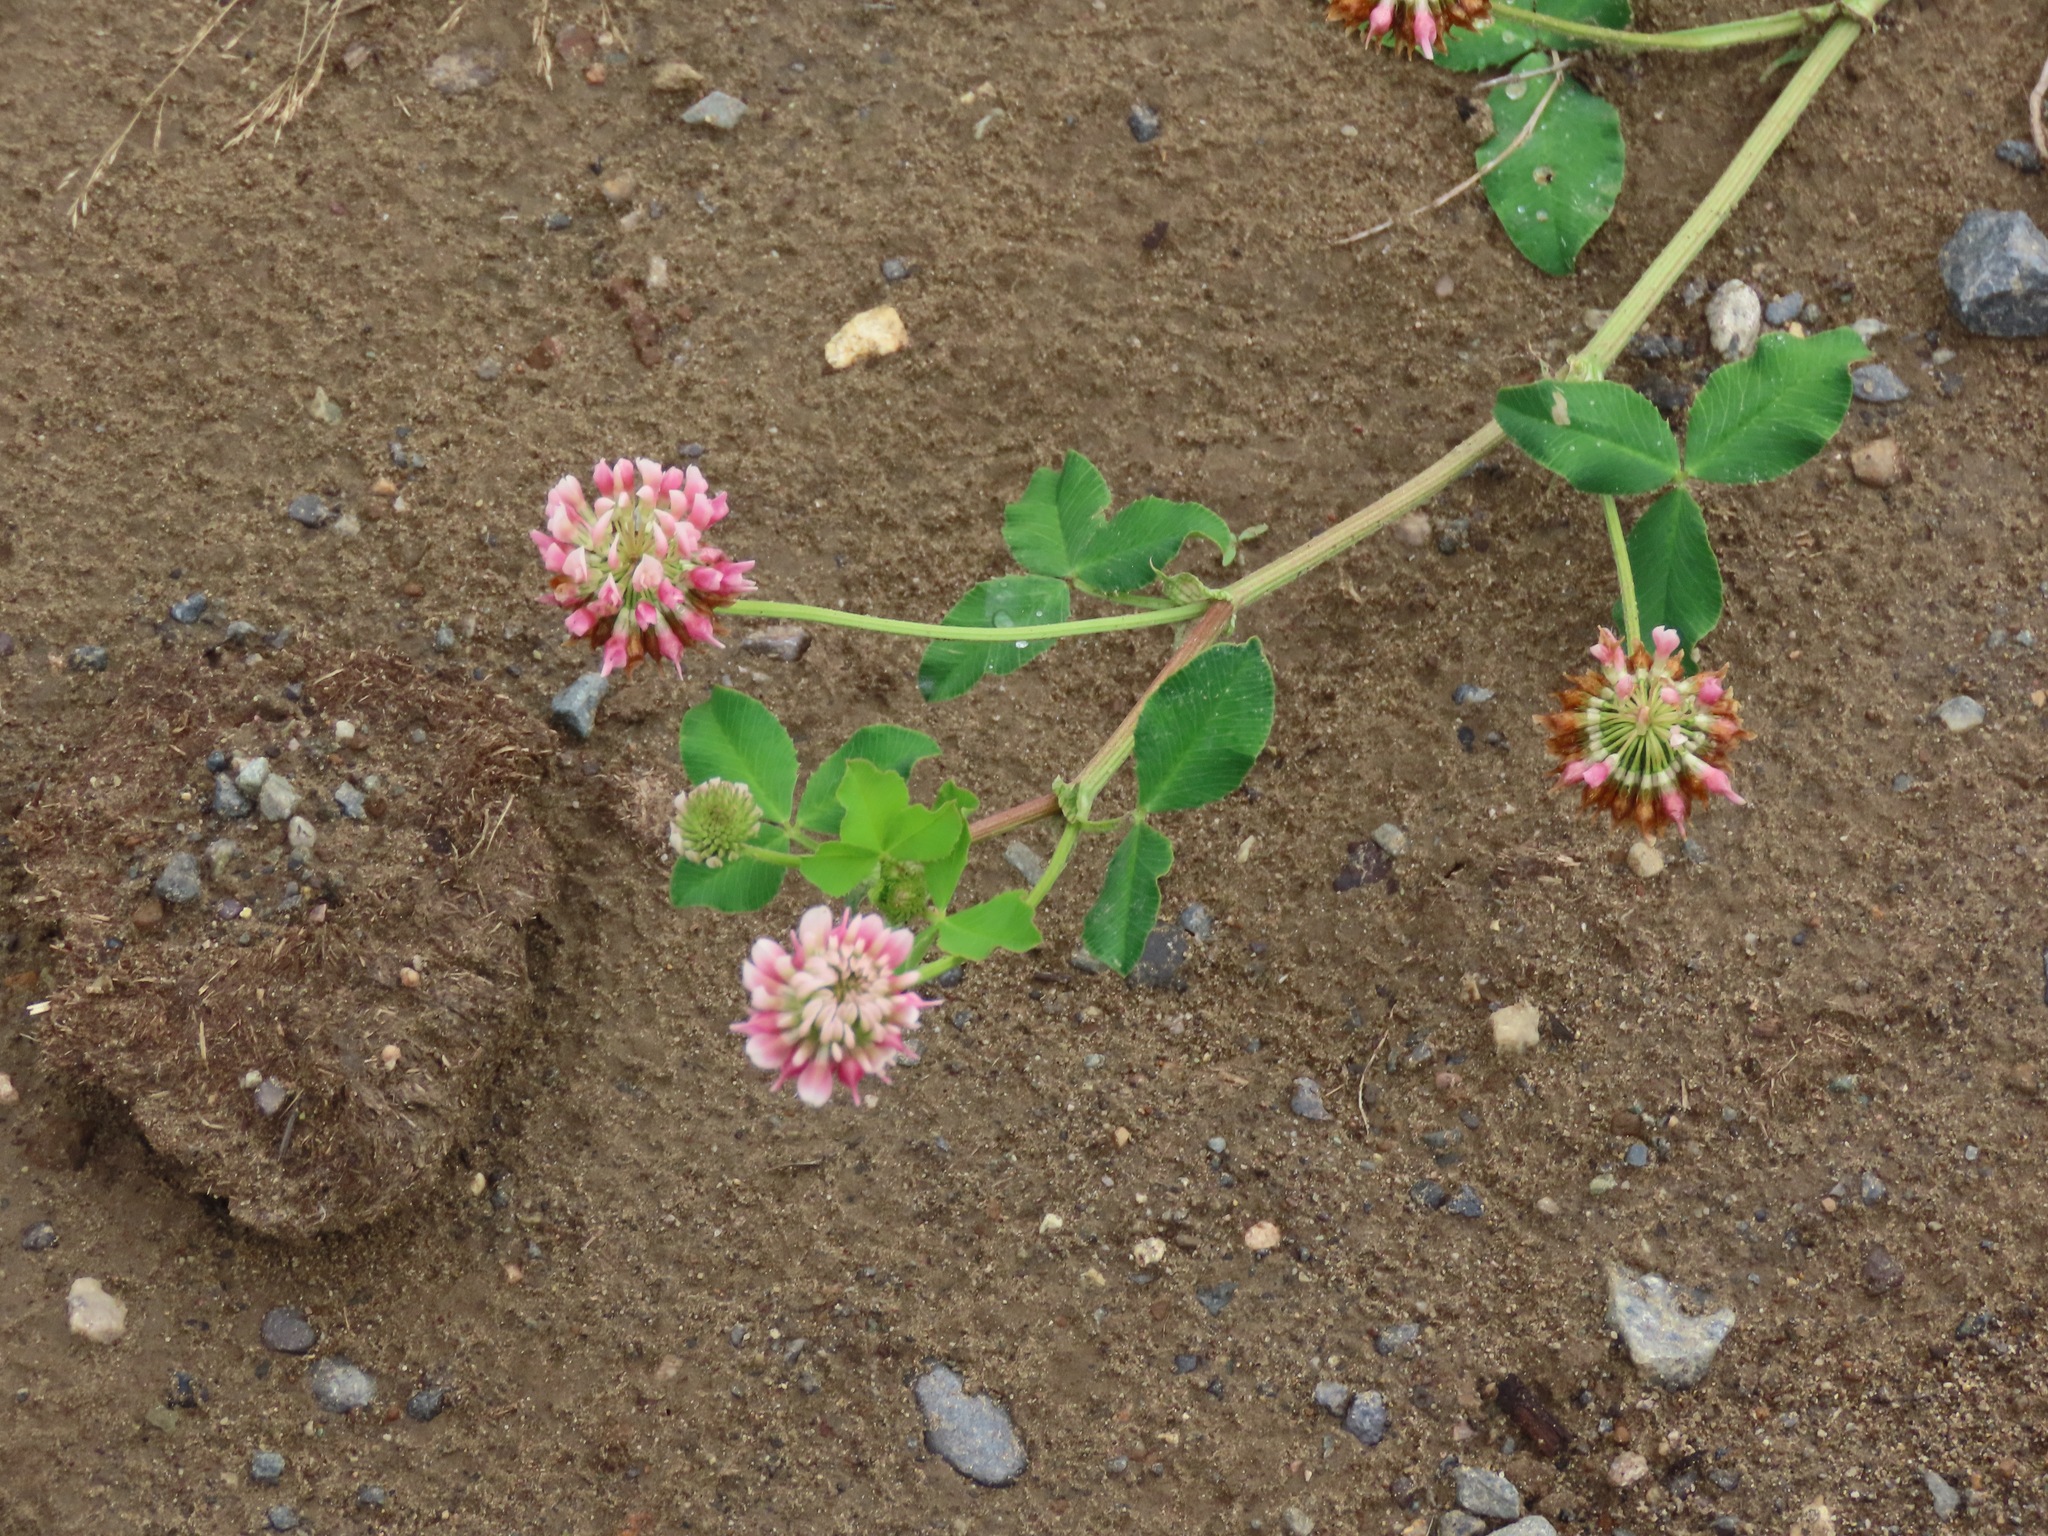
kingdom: Plantae
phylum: Tracheophyta
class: Magnoliopsida
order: Fabales
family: Fabaceae
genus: Trifolium
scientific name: Trifolium hybridum
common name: Alsike clover
